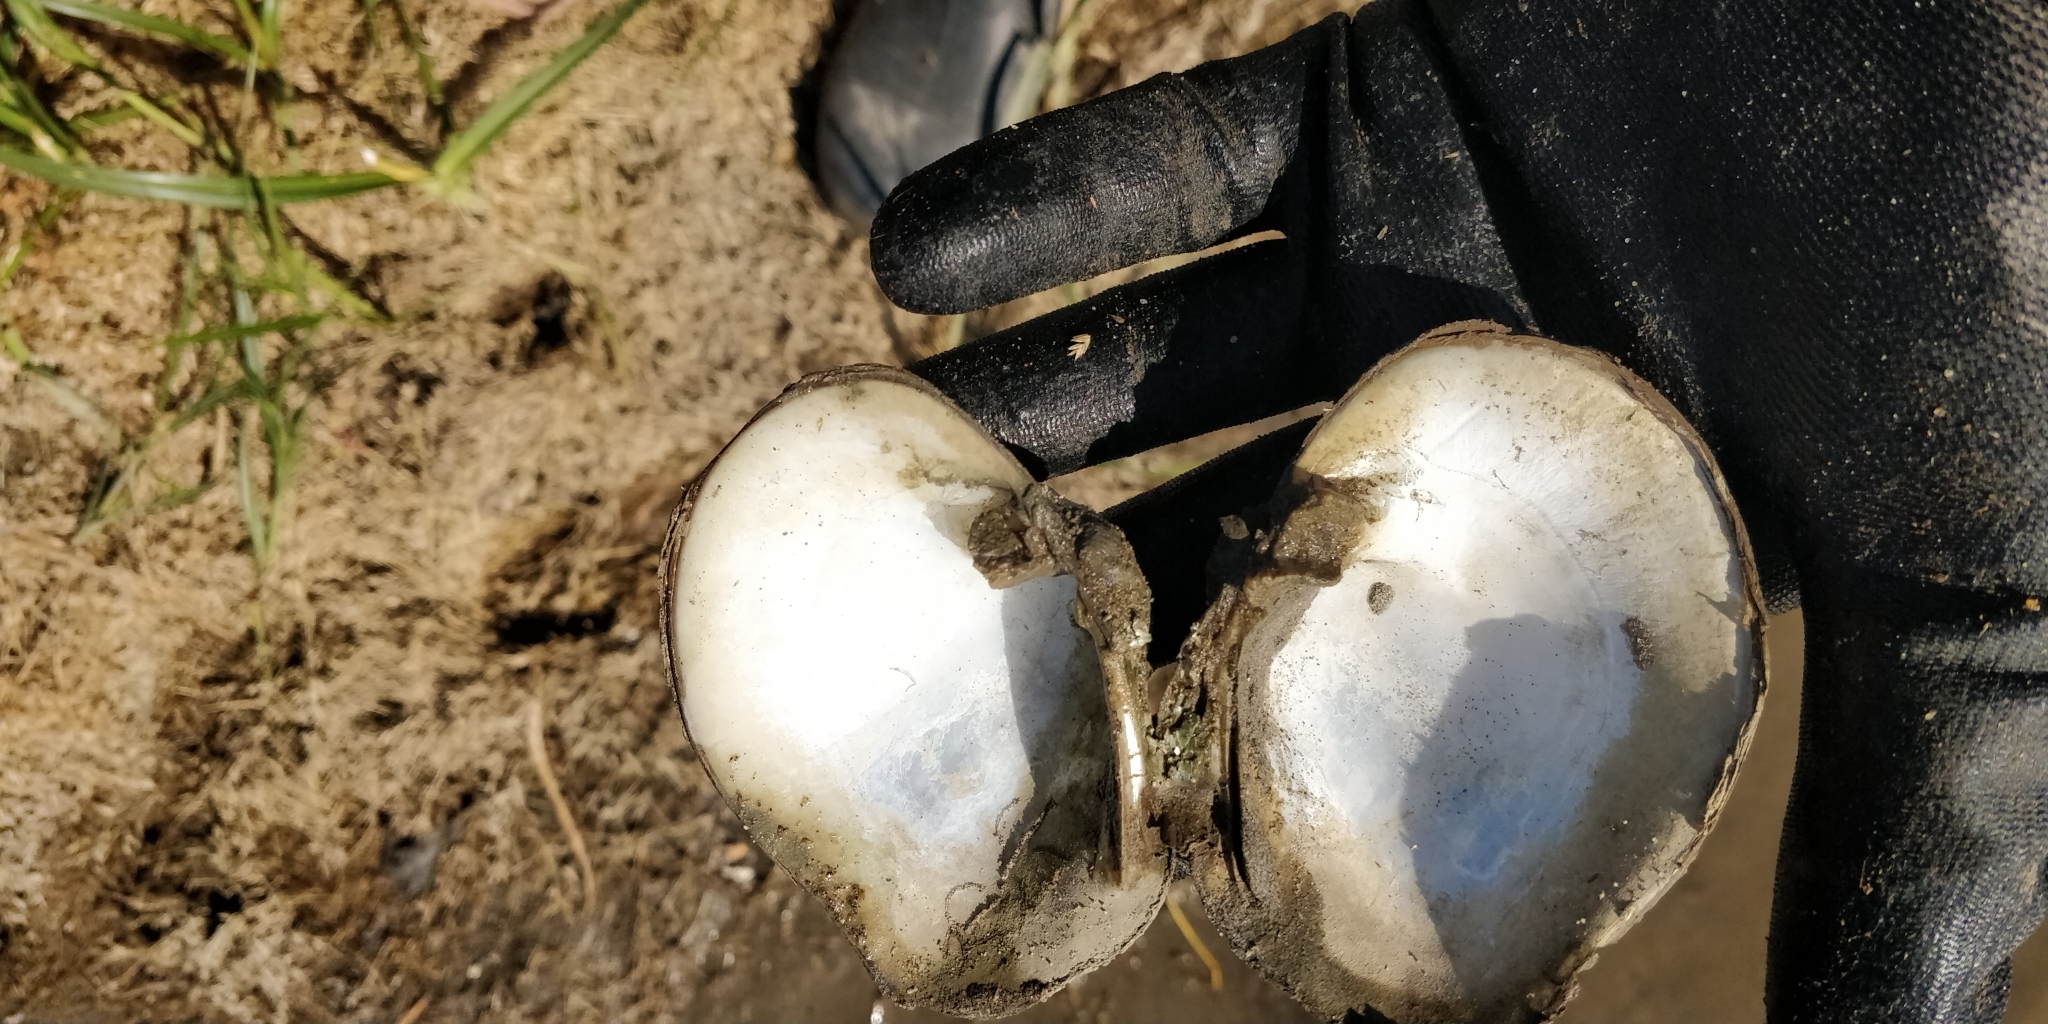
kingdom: Animalia
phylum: Mollusca
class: Bivalvia
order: Unionida
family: Unionidae
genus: Quadrula
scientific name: Quadrula quadrula
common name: Mapleleaf
